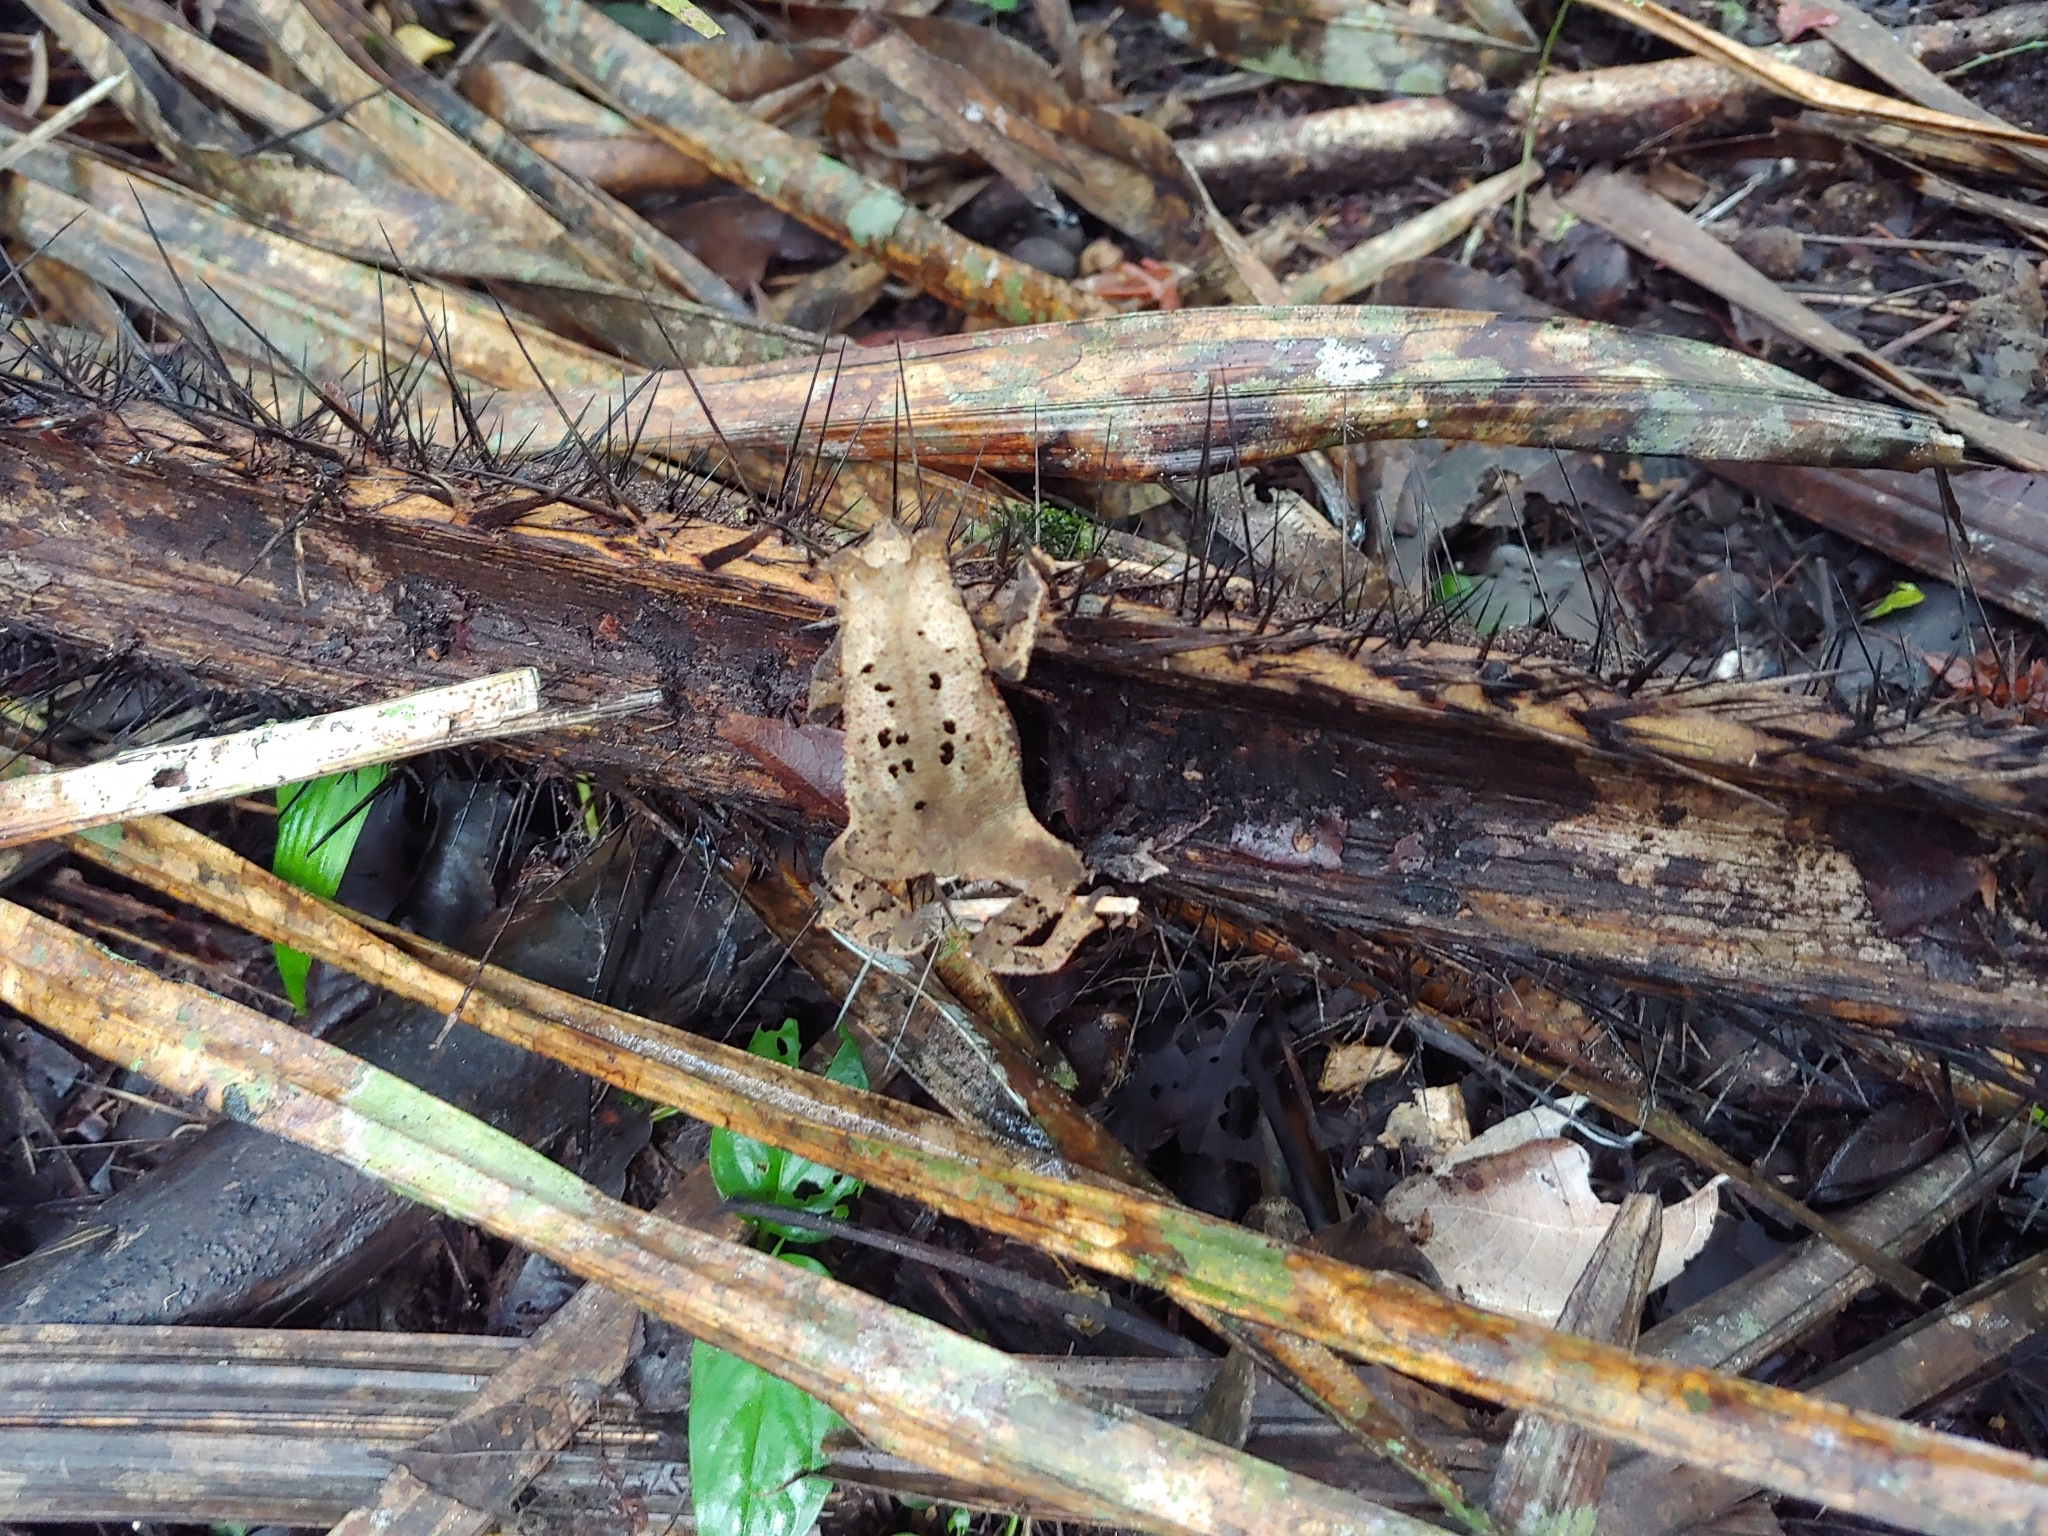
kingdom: Animalia
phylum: Chordata
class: Amphibia
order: Anura
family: Bufonidae
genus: Rhinella
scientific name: Rhinella alata
